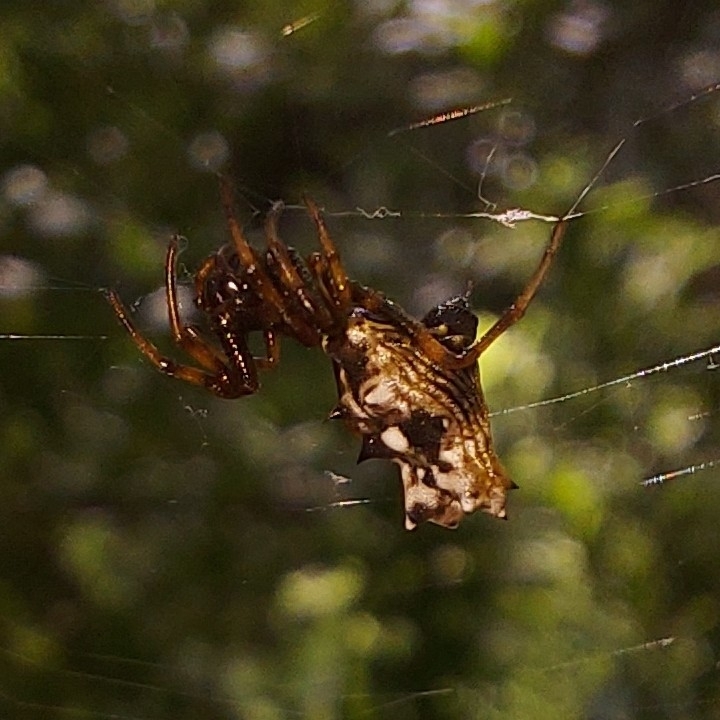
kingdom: Animalia
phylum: Arthropoda
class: Arachnida
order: Araneae
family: Araneidae
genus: Micrathena
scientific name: Micrathena gracilis
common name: Orb weavers
